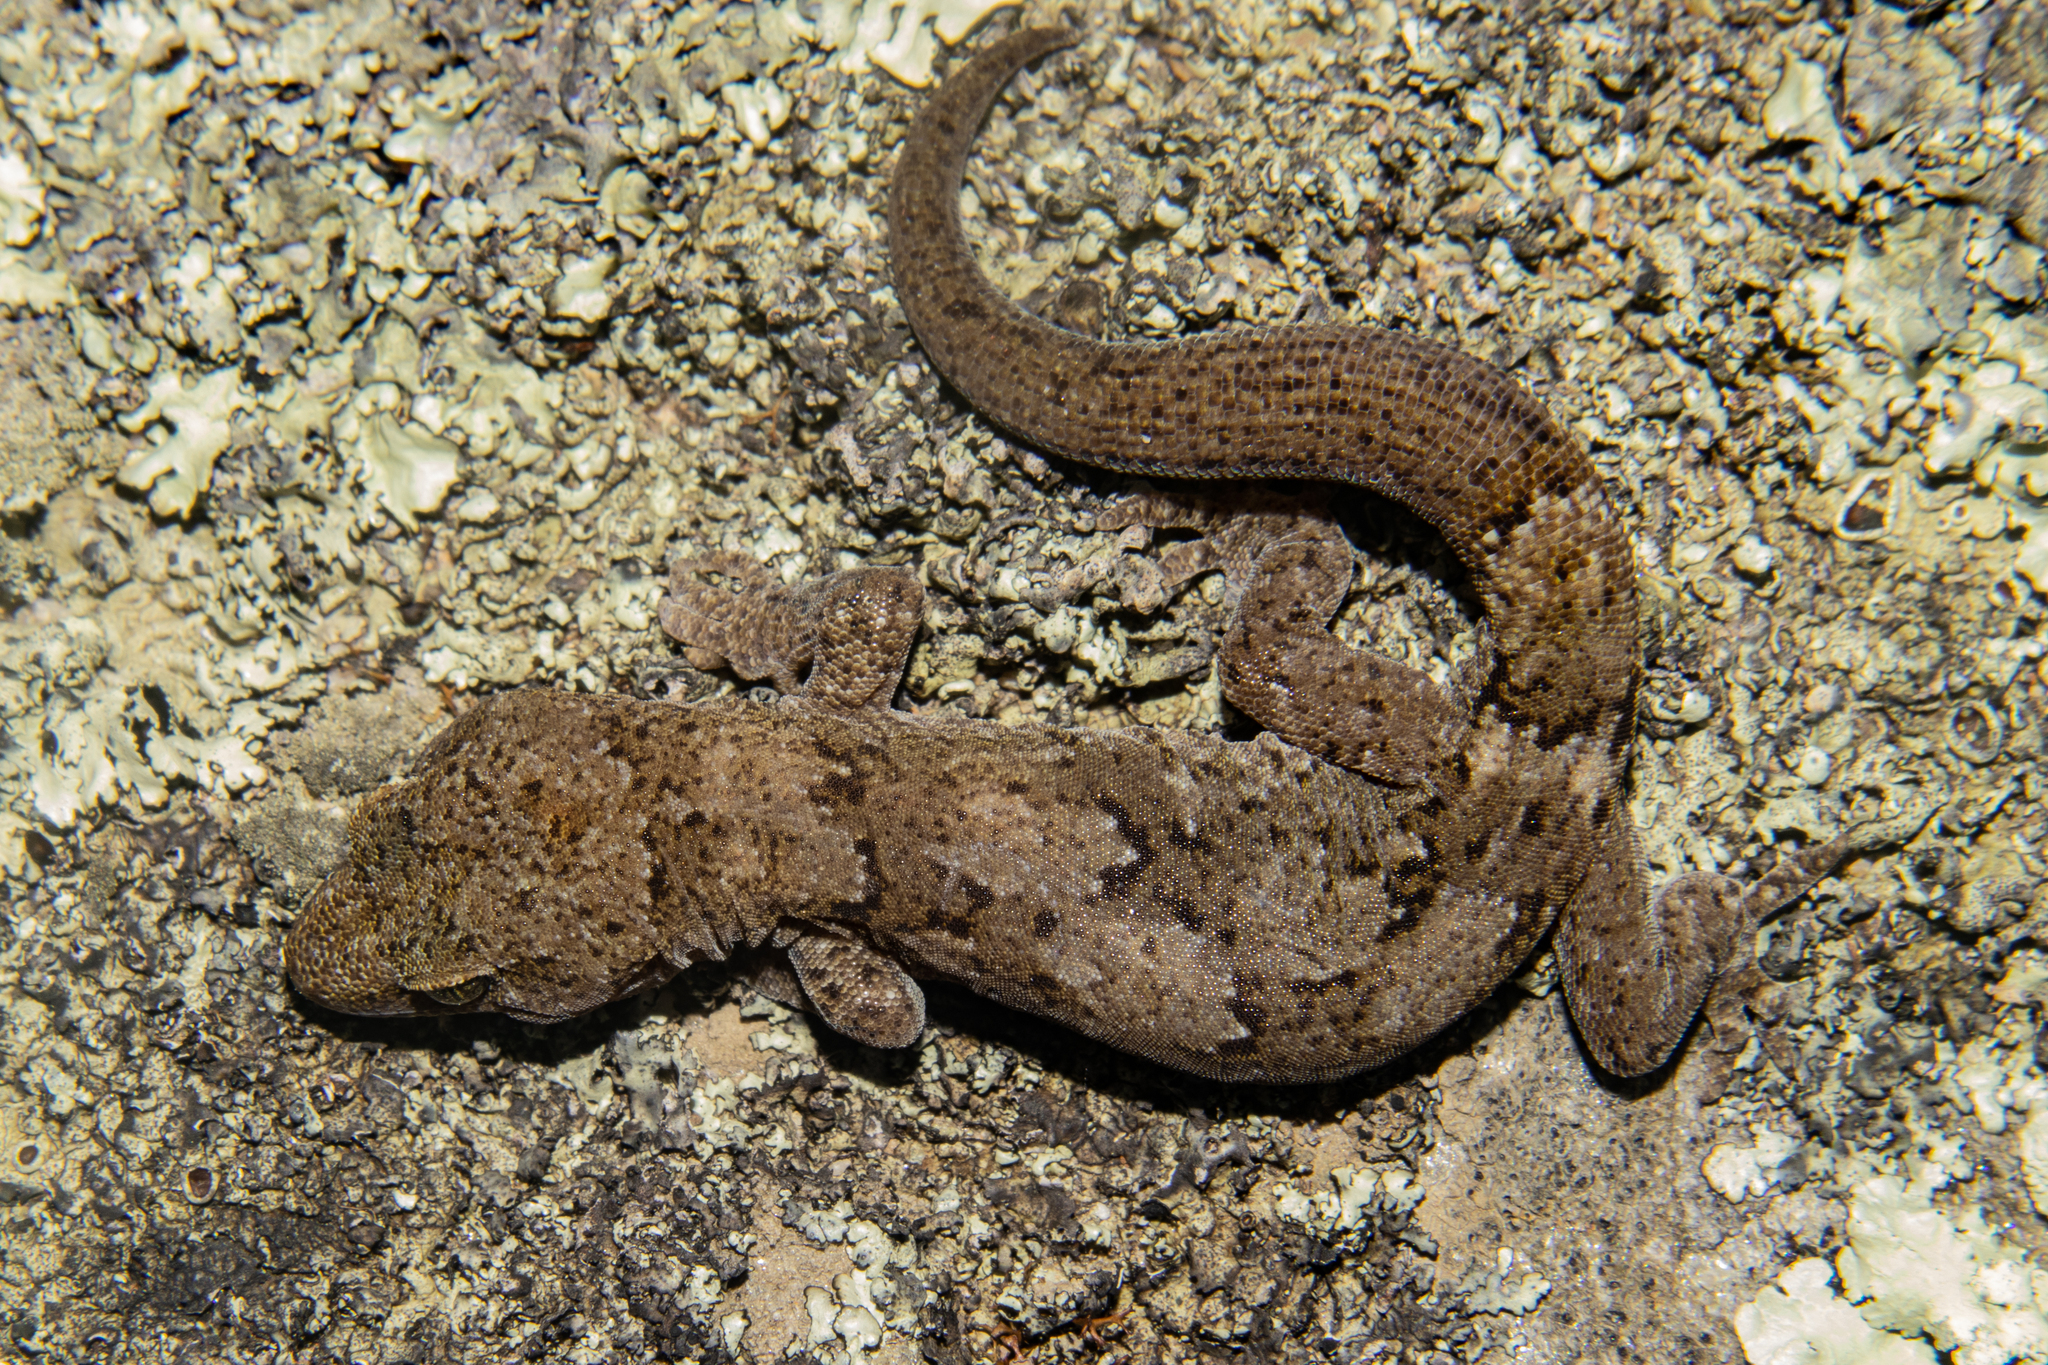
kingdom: Animalia
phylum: Chordata
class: Squamata
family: Diplodactylidae
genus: Woodworthia
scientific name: Woodworthia
